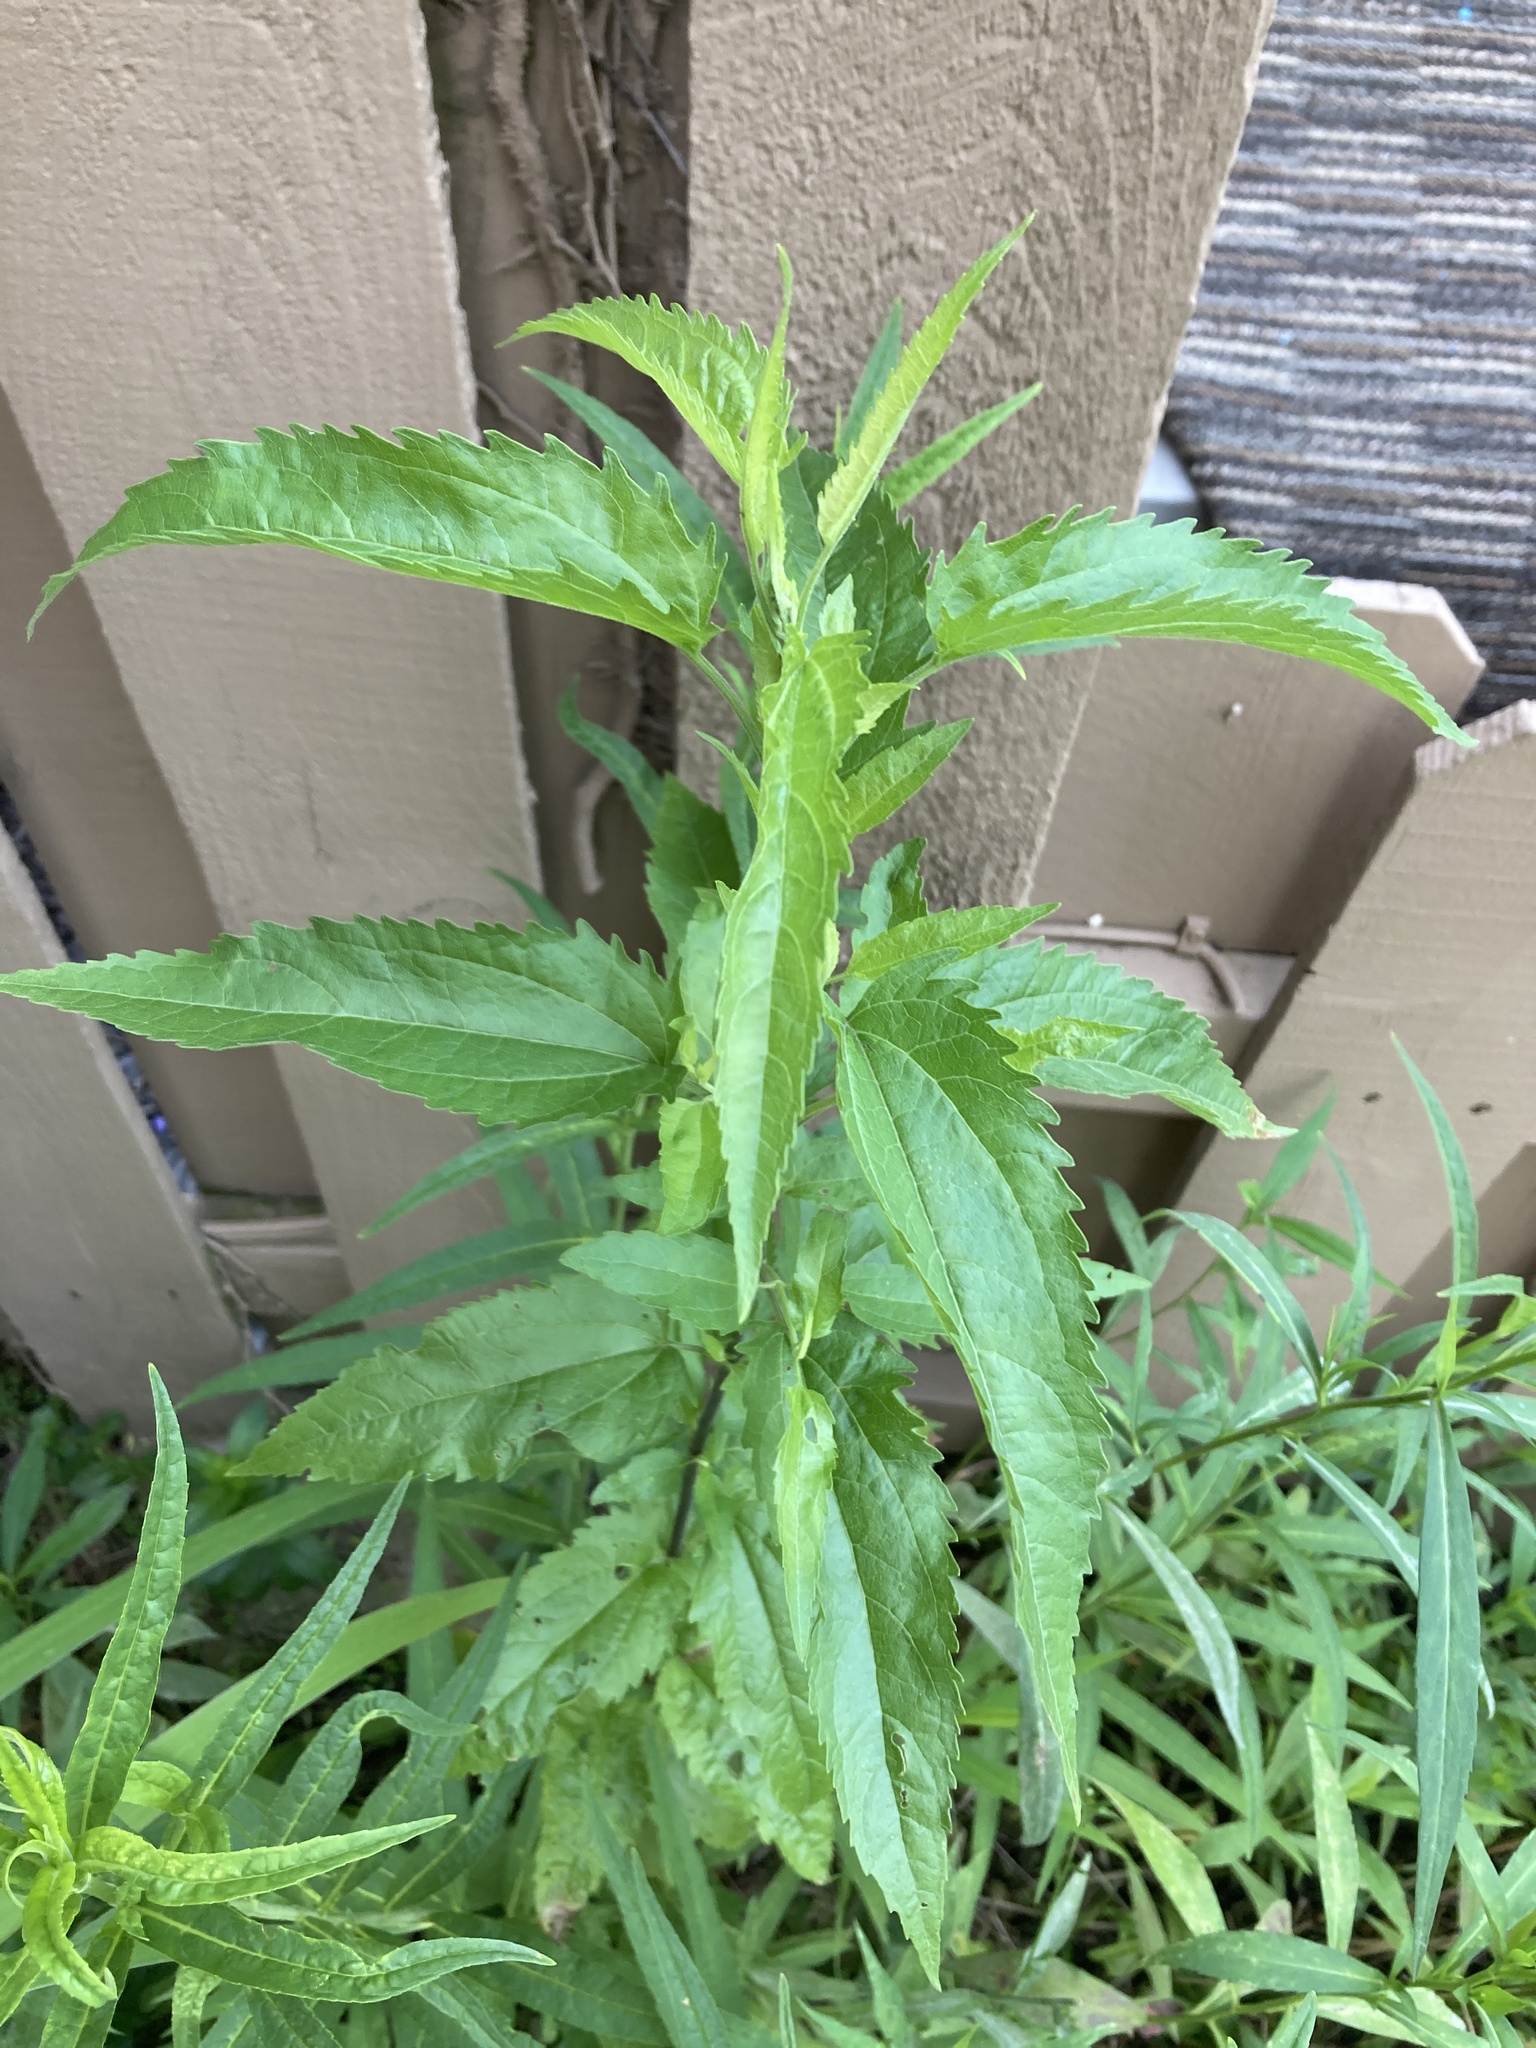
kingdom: Plantae
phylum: Tracheophyta
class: Magnoliopsida
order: Asterales
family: Asteraceae
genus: Eupatorium
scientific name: Eupatorium serotinum
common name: Late boneset
